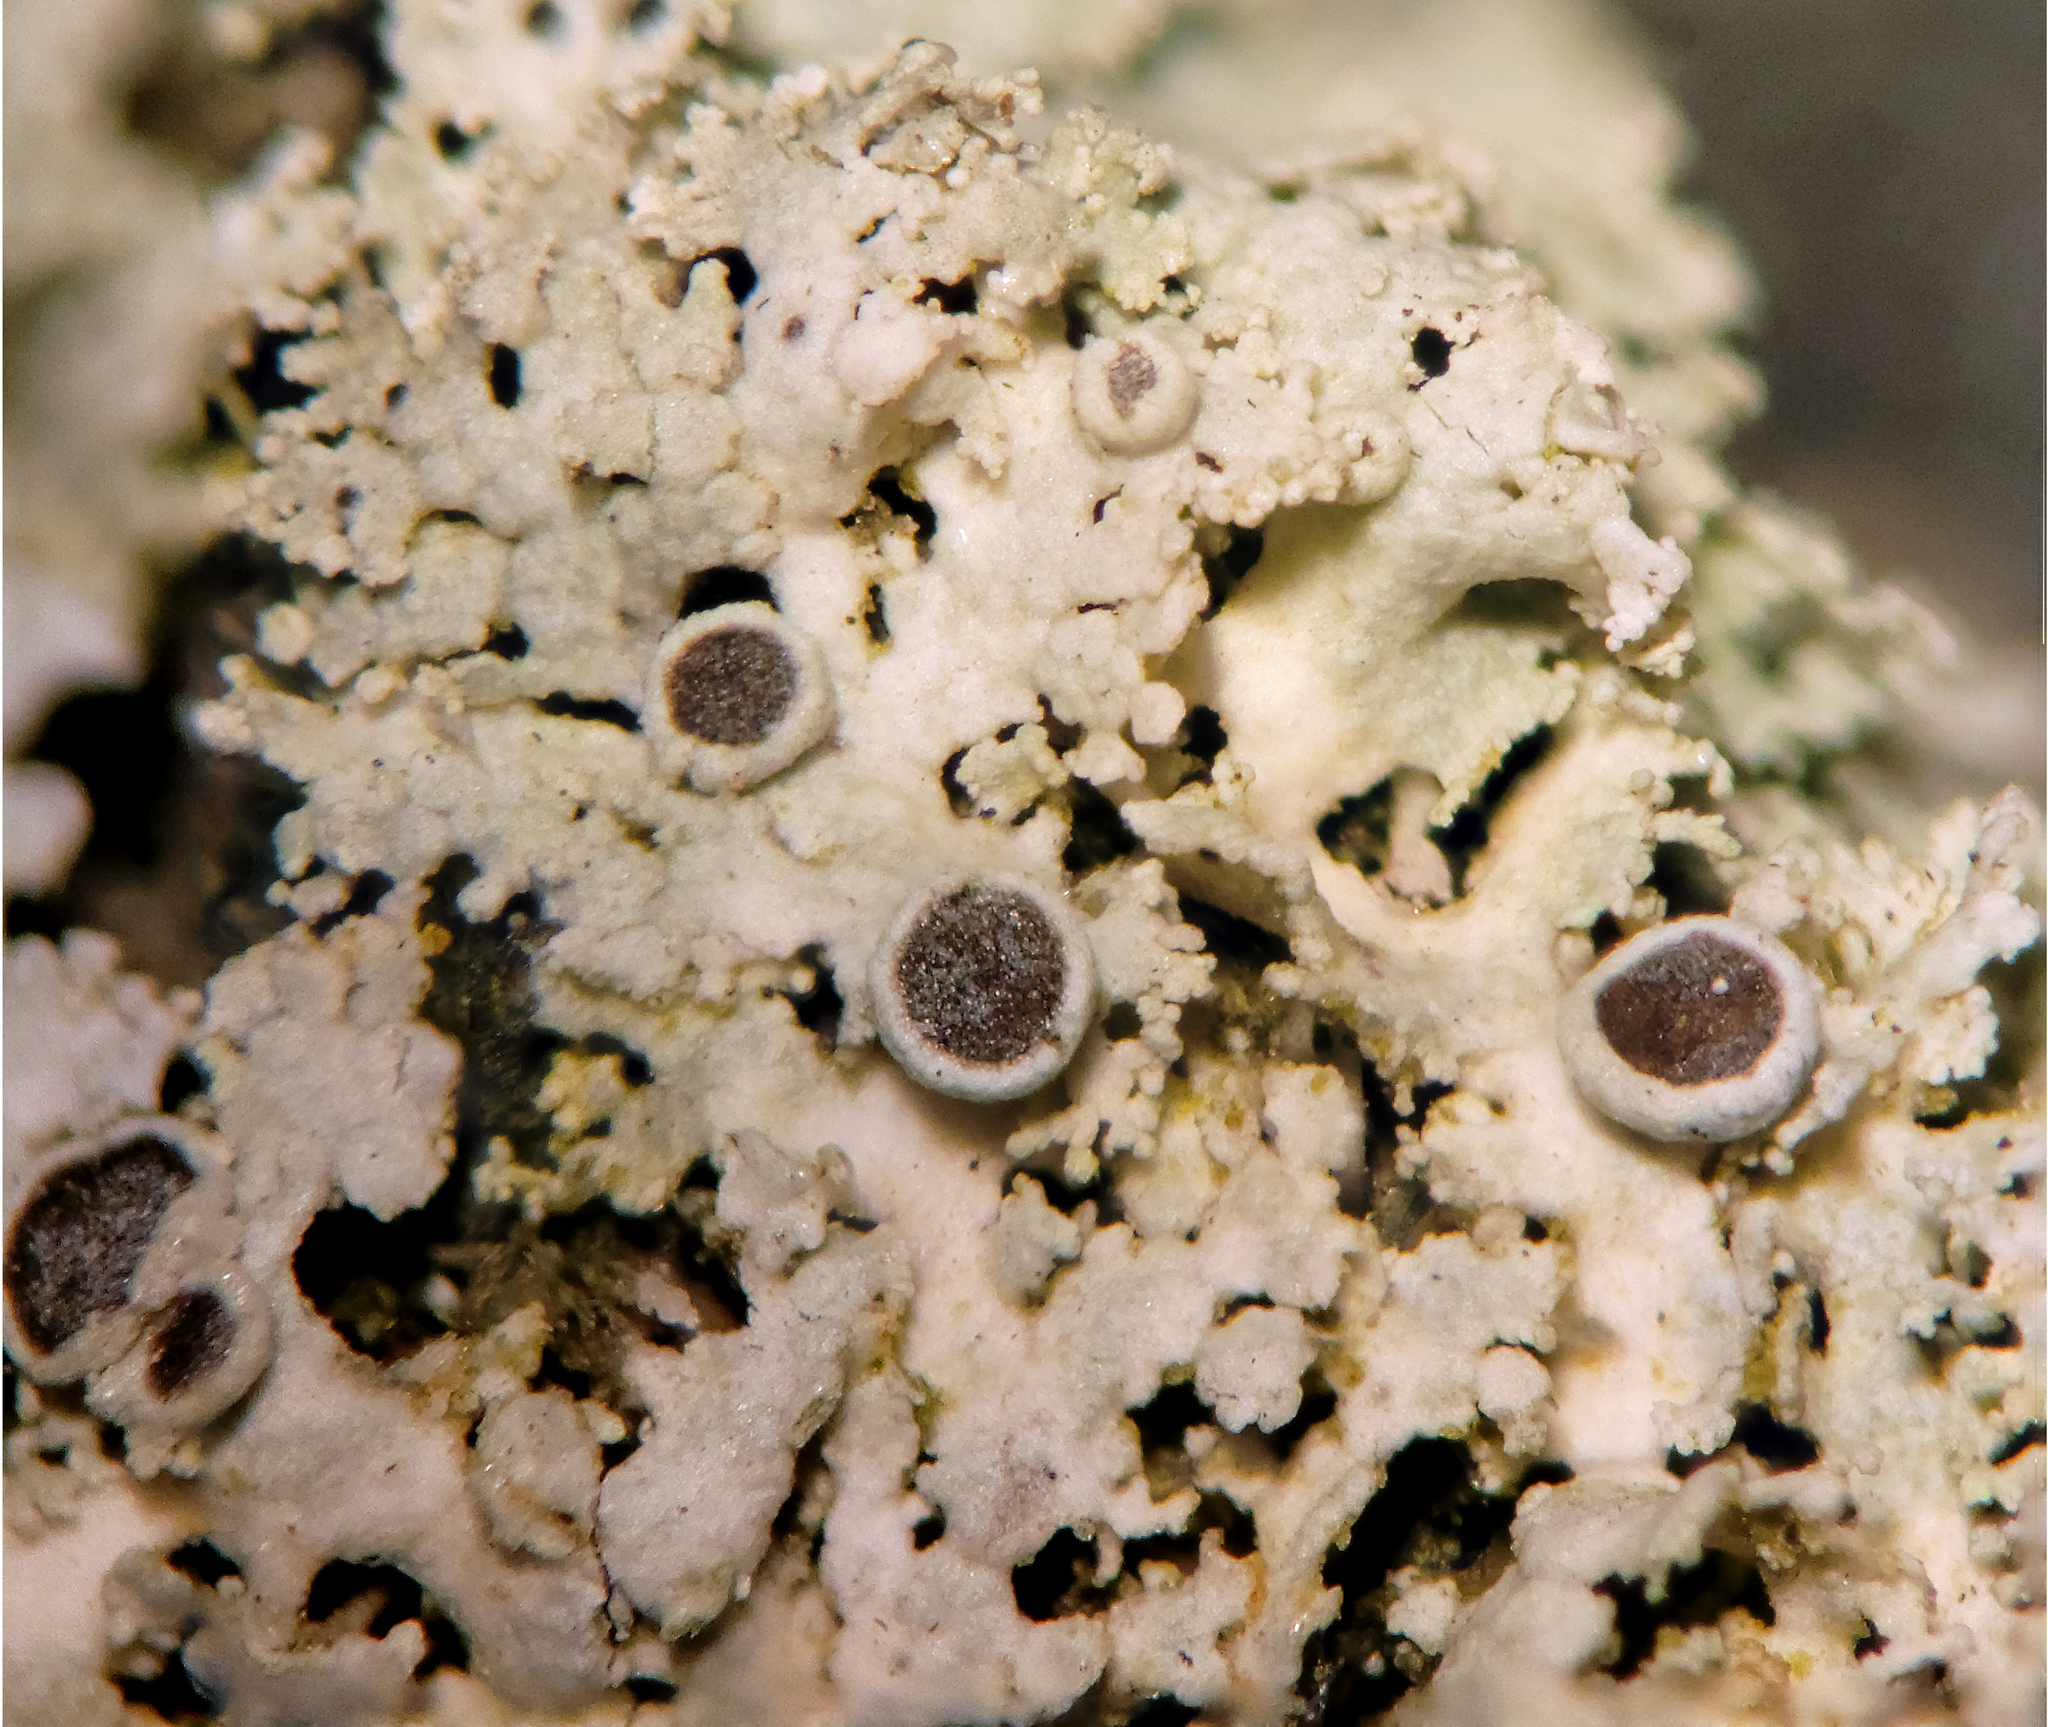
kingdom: Fungi
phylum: Ascomycota
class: Lecanoromycetes
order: Caliciales
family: Physciaceae
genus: Physcia
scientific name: Physcia millegrana
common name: Rosette lichen
